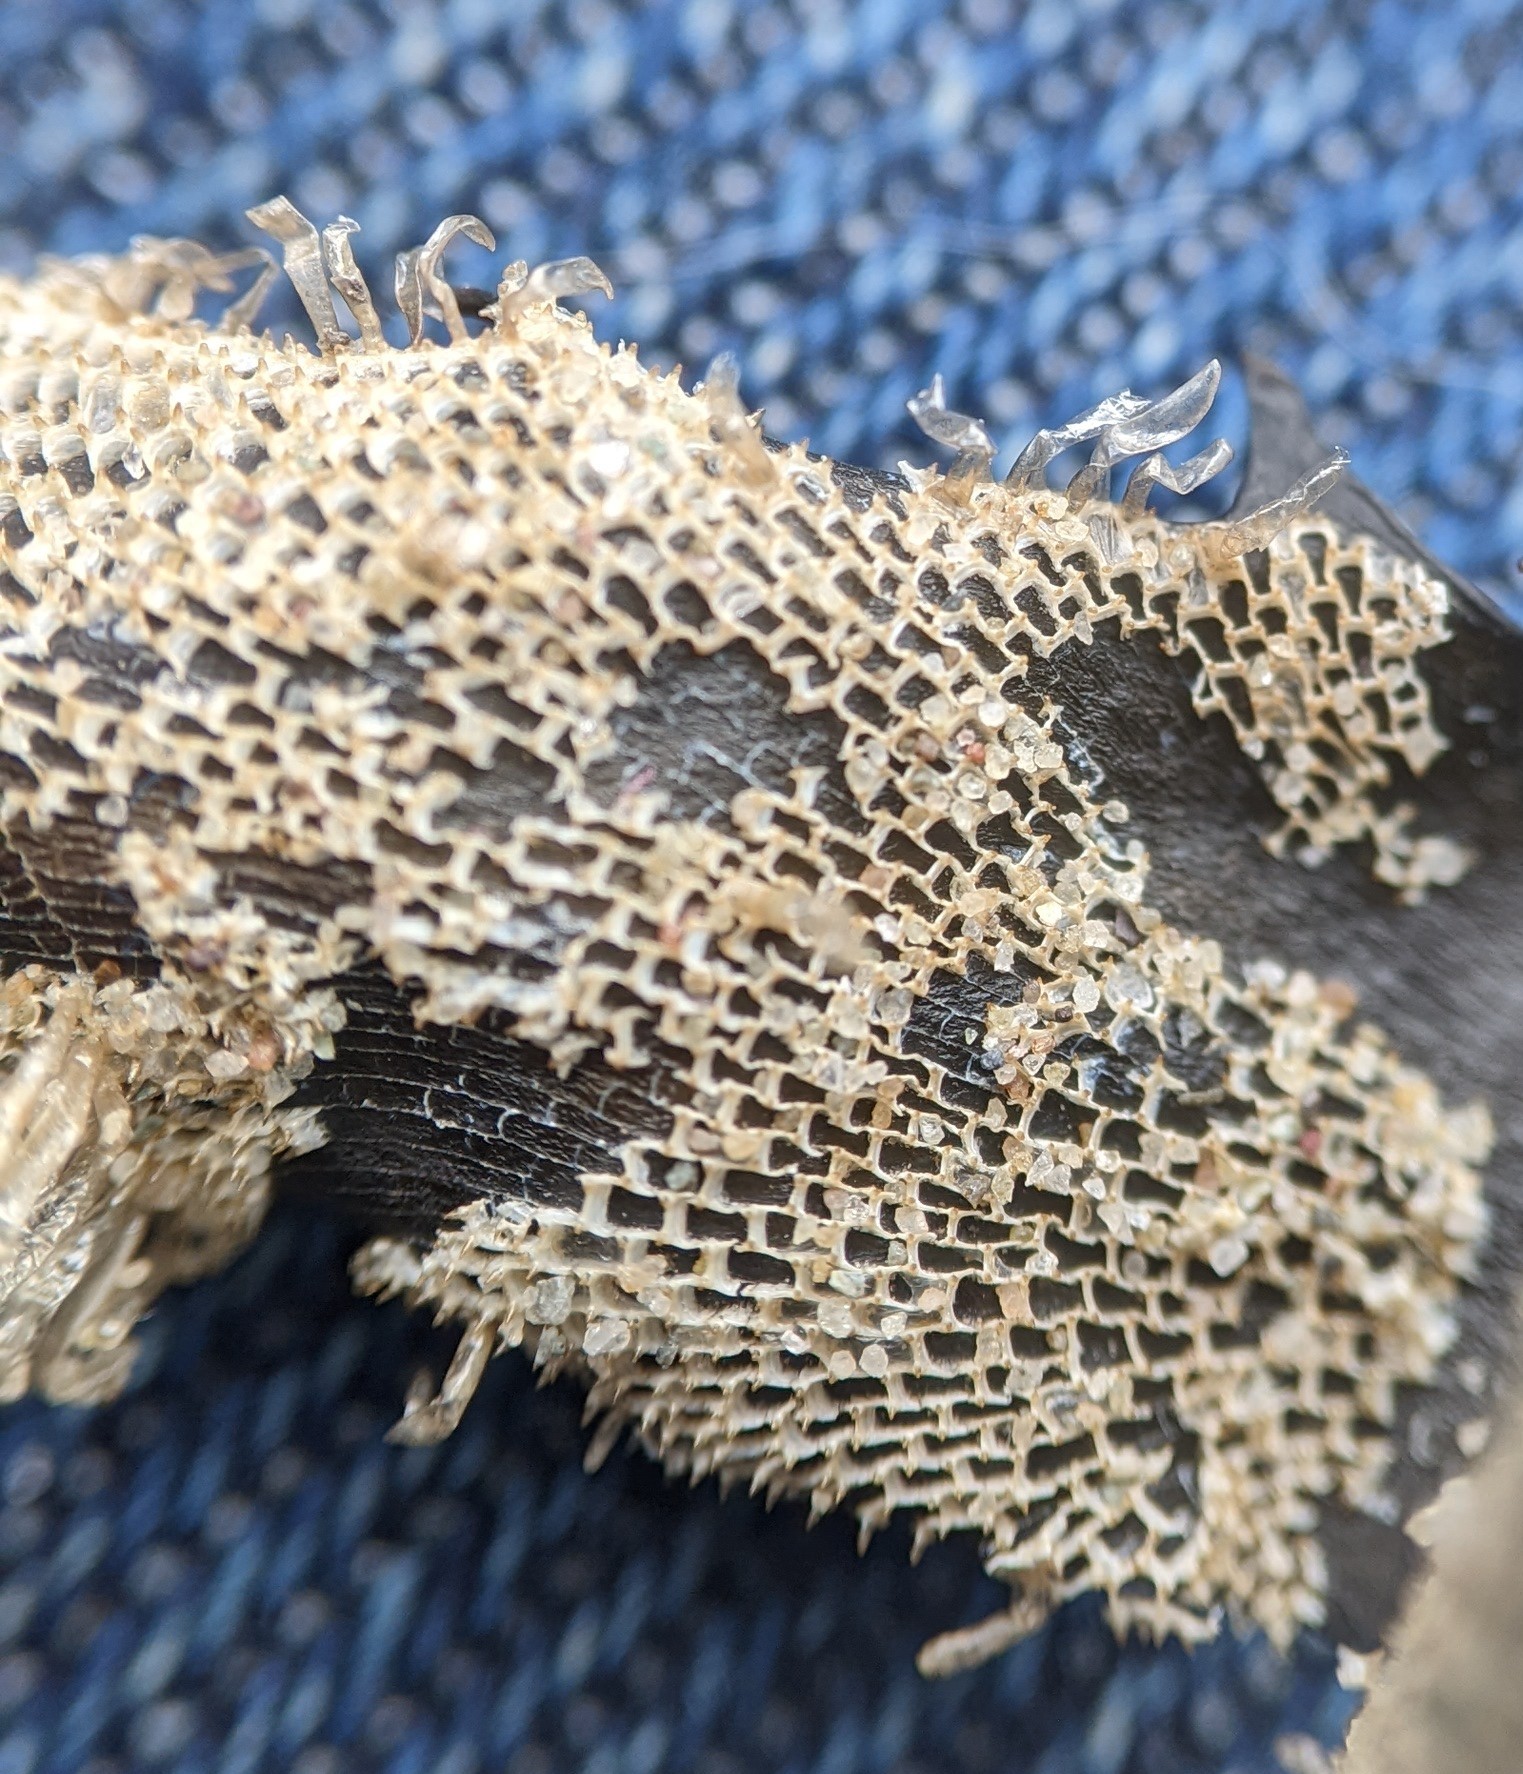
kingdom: Animalia
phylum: Bryozoa
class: Gymnolaemata
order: Cheilostomatida
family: Membraniporidae
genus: Membranipora
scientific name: Membranipora membranacea
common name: Sea mat
